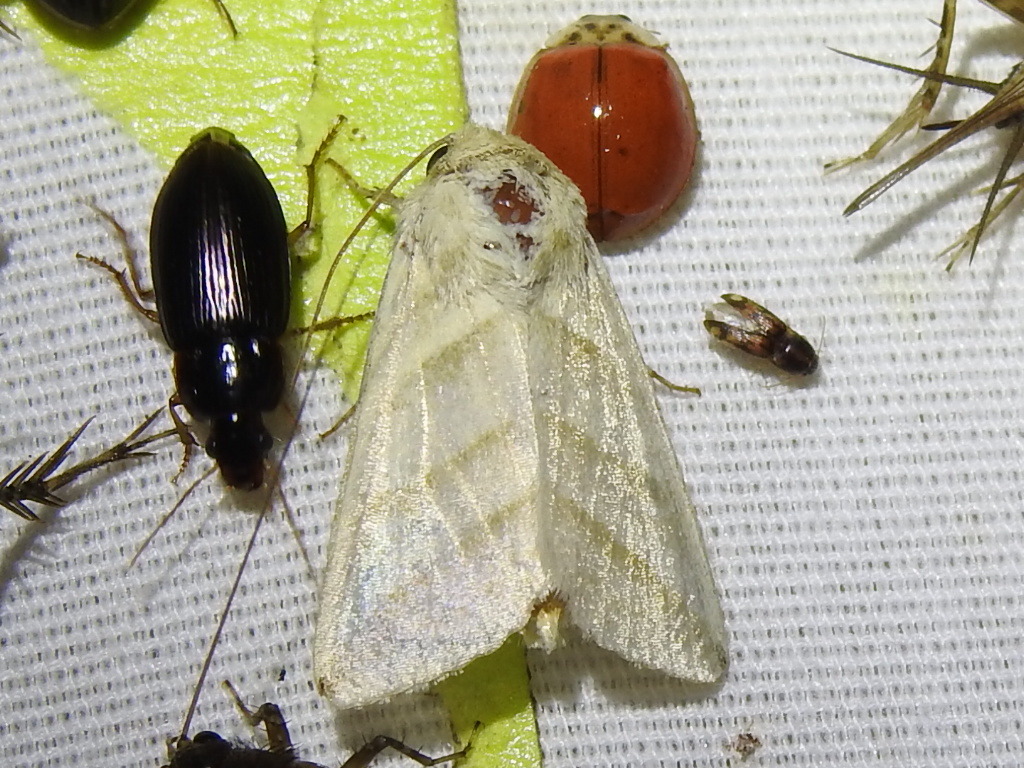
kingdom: Animalia
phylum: Arthropoda
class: Insecta
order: Lepidoptera
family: Noctuidae
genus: Chloridea
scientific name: Chloridea virescens
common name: Tobacco budworm
